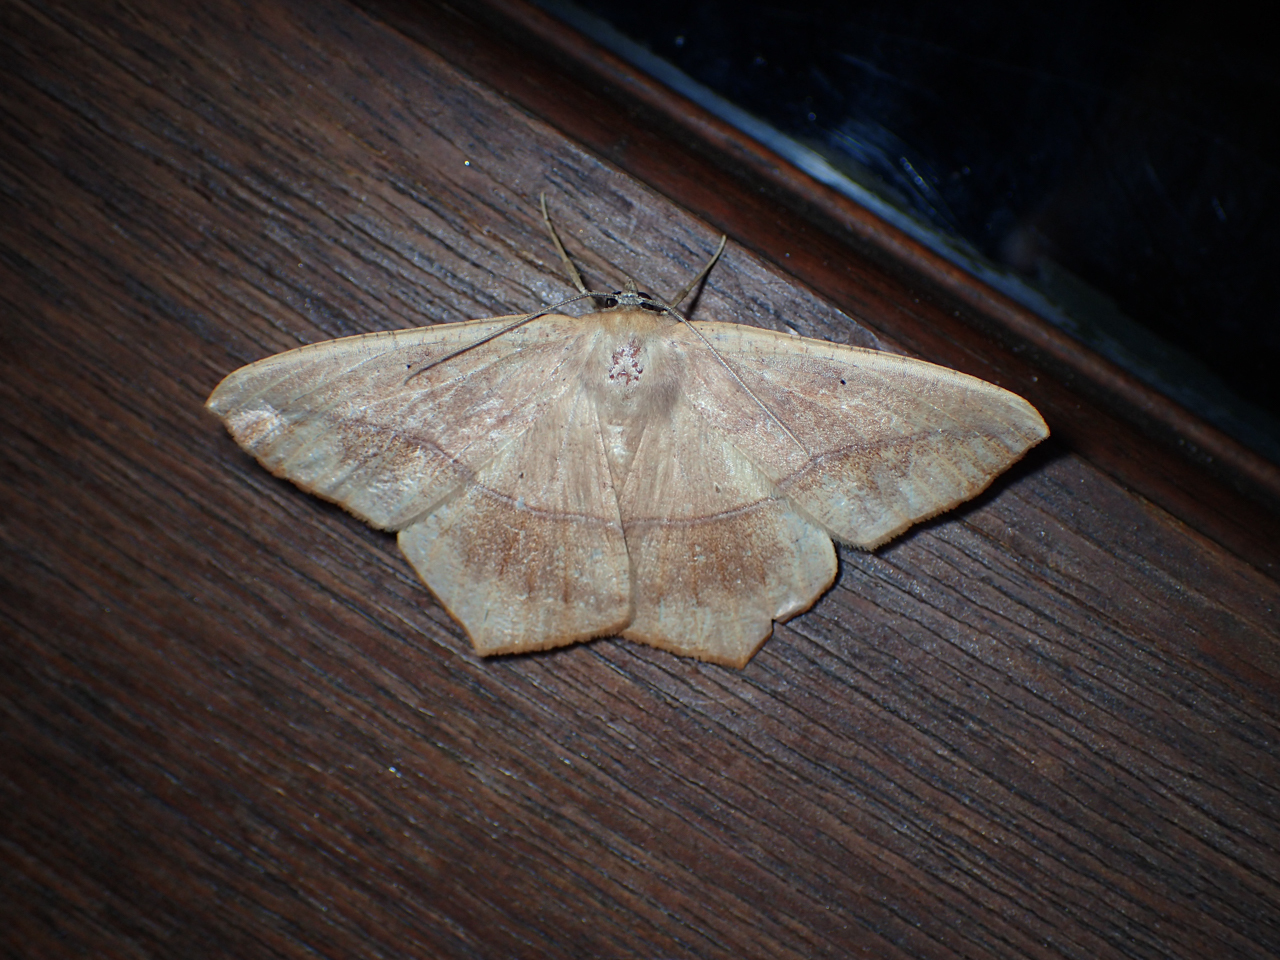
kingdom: Animalia
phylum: Arthropoda
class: Insecta
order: Lepidoptera
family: Geometridae
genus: Prochoerodes
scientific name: Prochoerodes lineola
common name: Large maple spanworm
